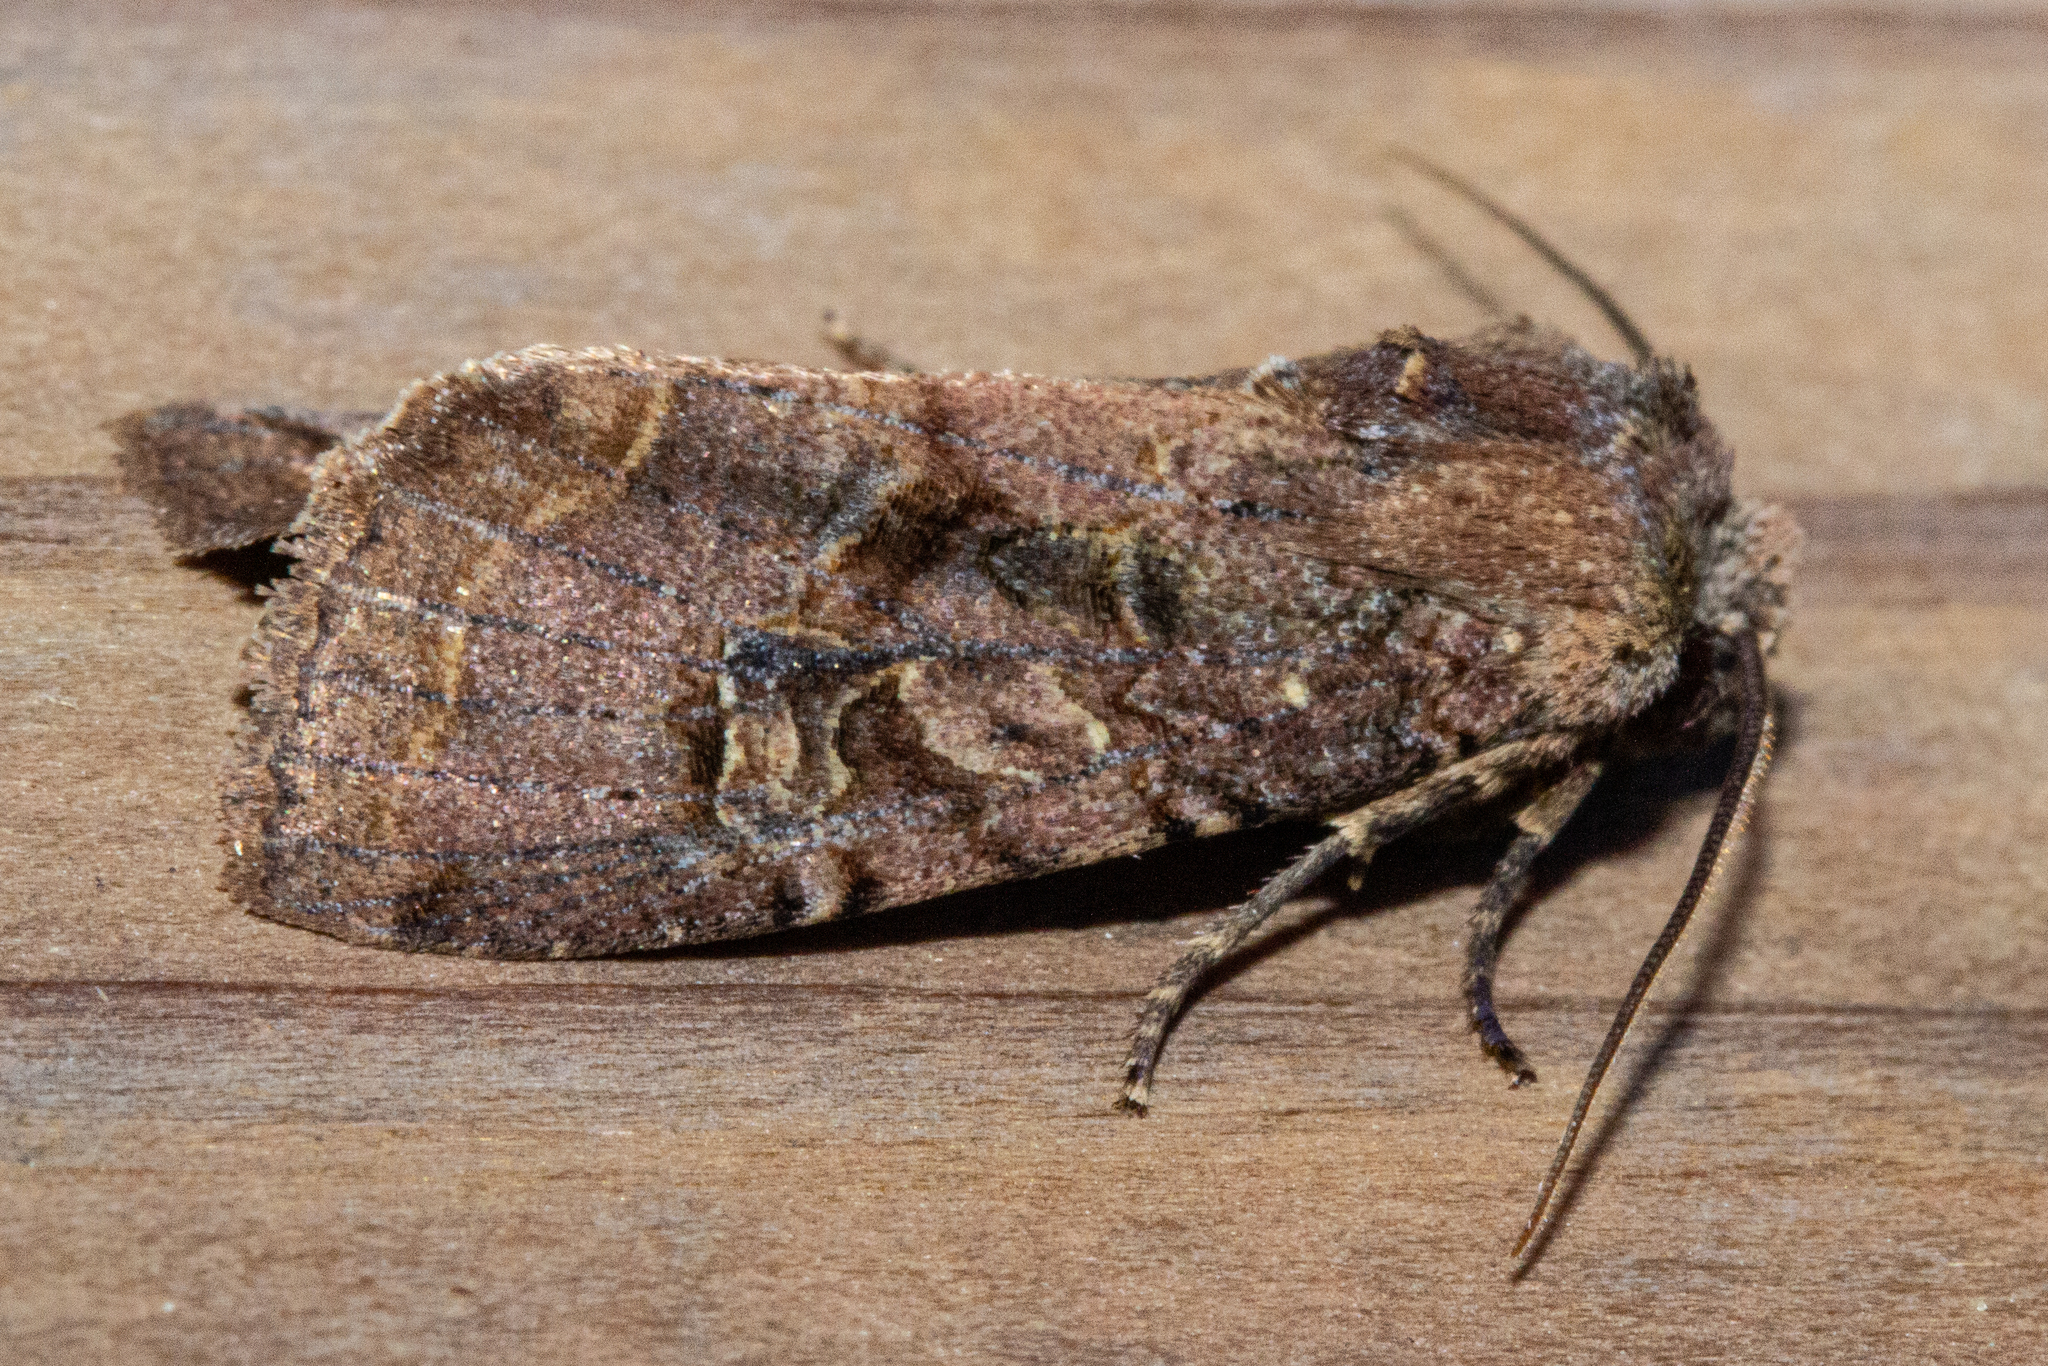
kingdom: Animalia
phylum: Arthropoda
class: Insecta
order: Lepidoptera
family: Noctuidae
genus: Meterana
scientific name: Meterana tartaraea
